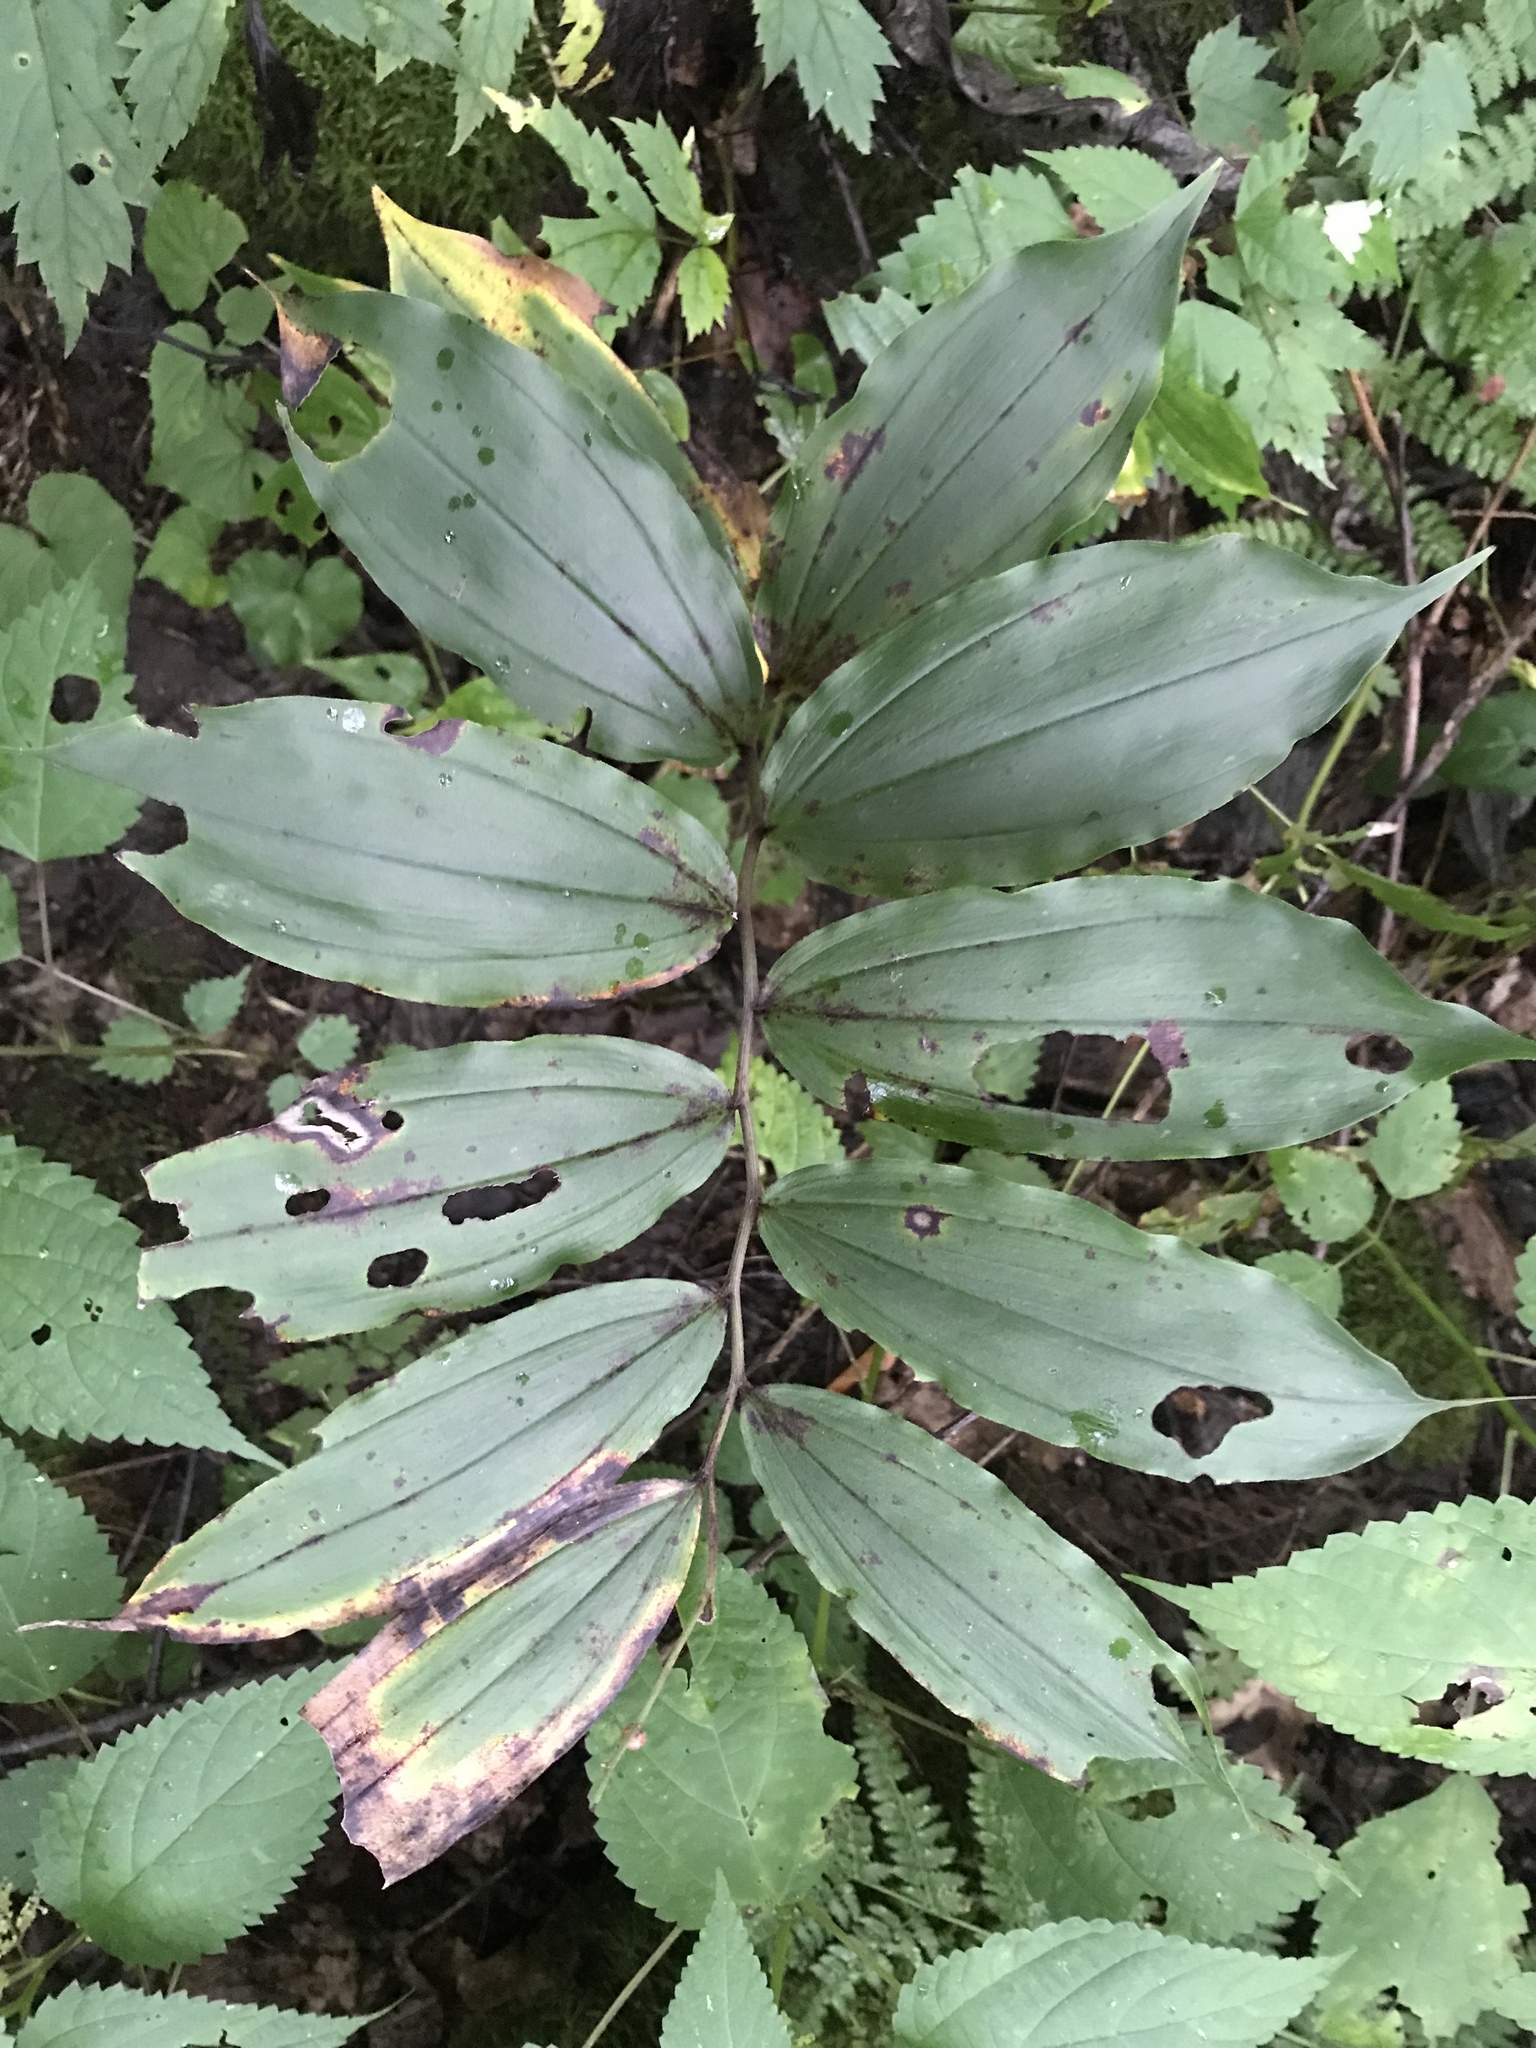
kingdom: Plantae
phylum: Tracheophyta
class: Liliopsida
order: Asparagales
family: Asparagaceae
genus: Maianthemum
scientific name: Maianthemum racemosum
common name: False spikenard
